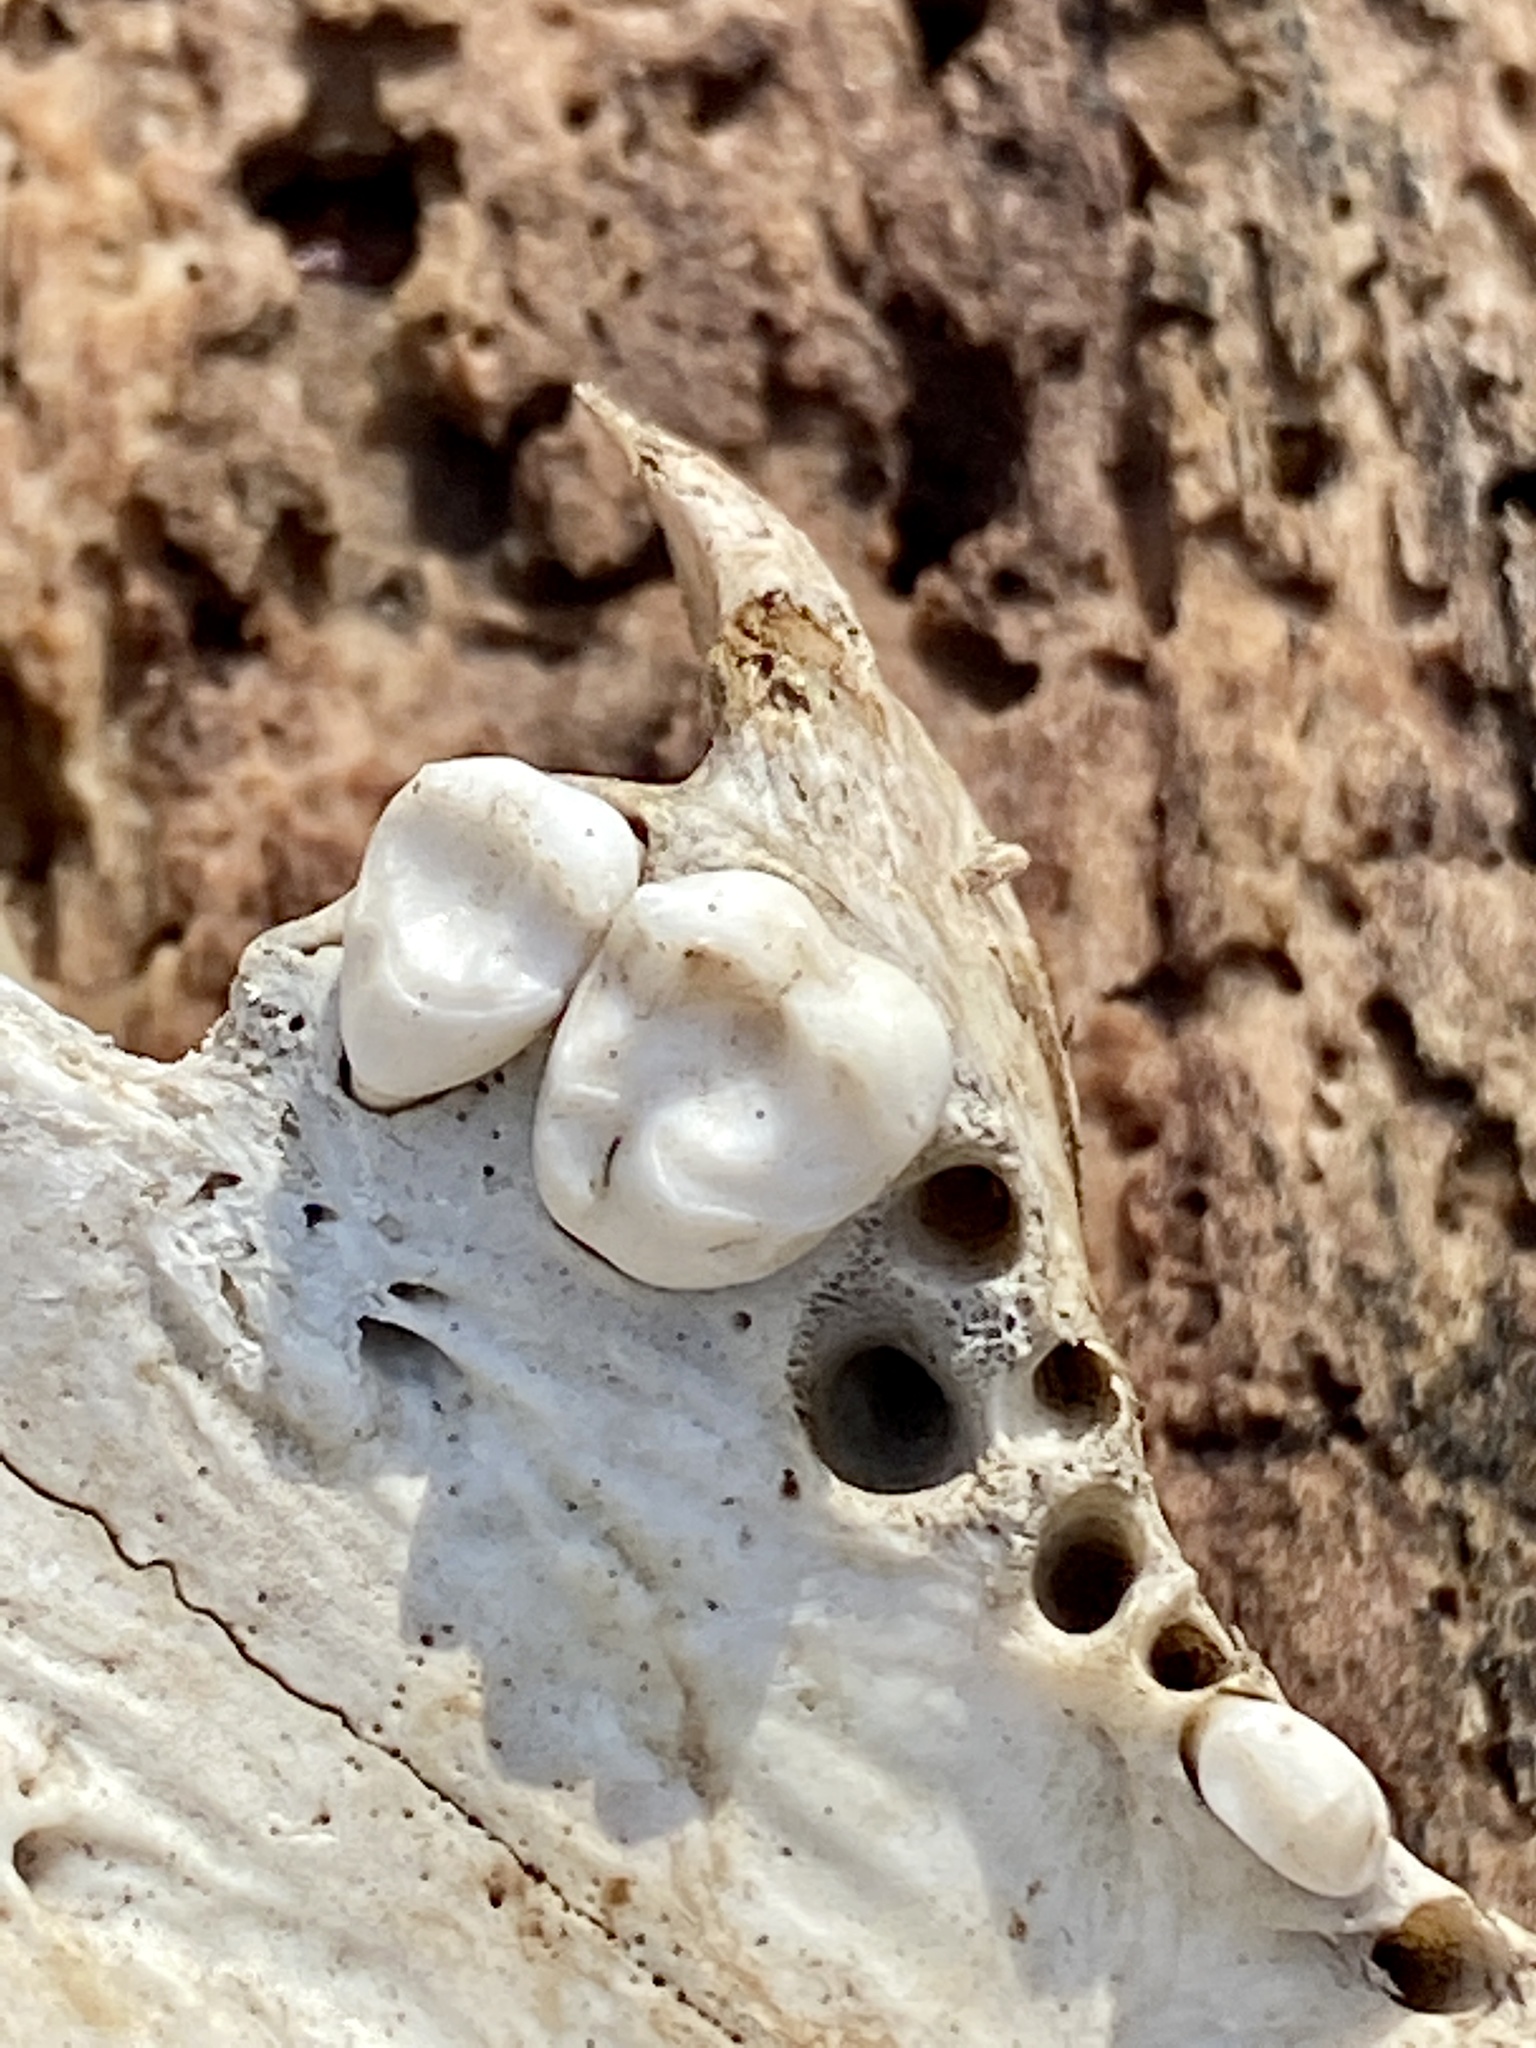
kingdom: Animalia
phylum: Chordata
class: Mammalia
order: Carnivora
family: Procyonidae
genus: Procyon
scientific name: Procyon lotor
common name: Raccoon
